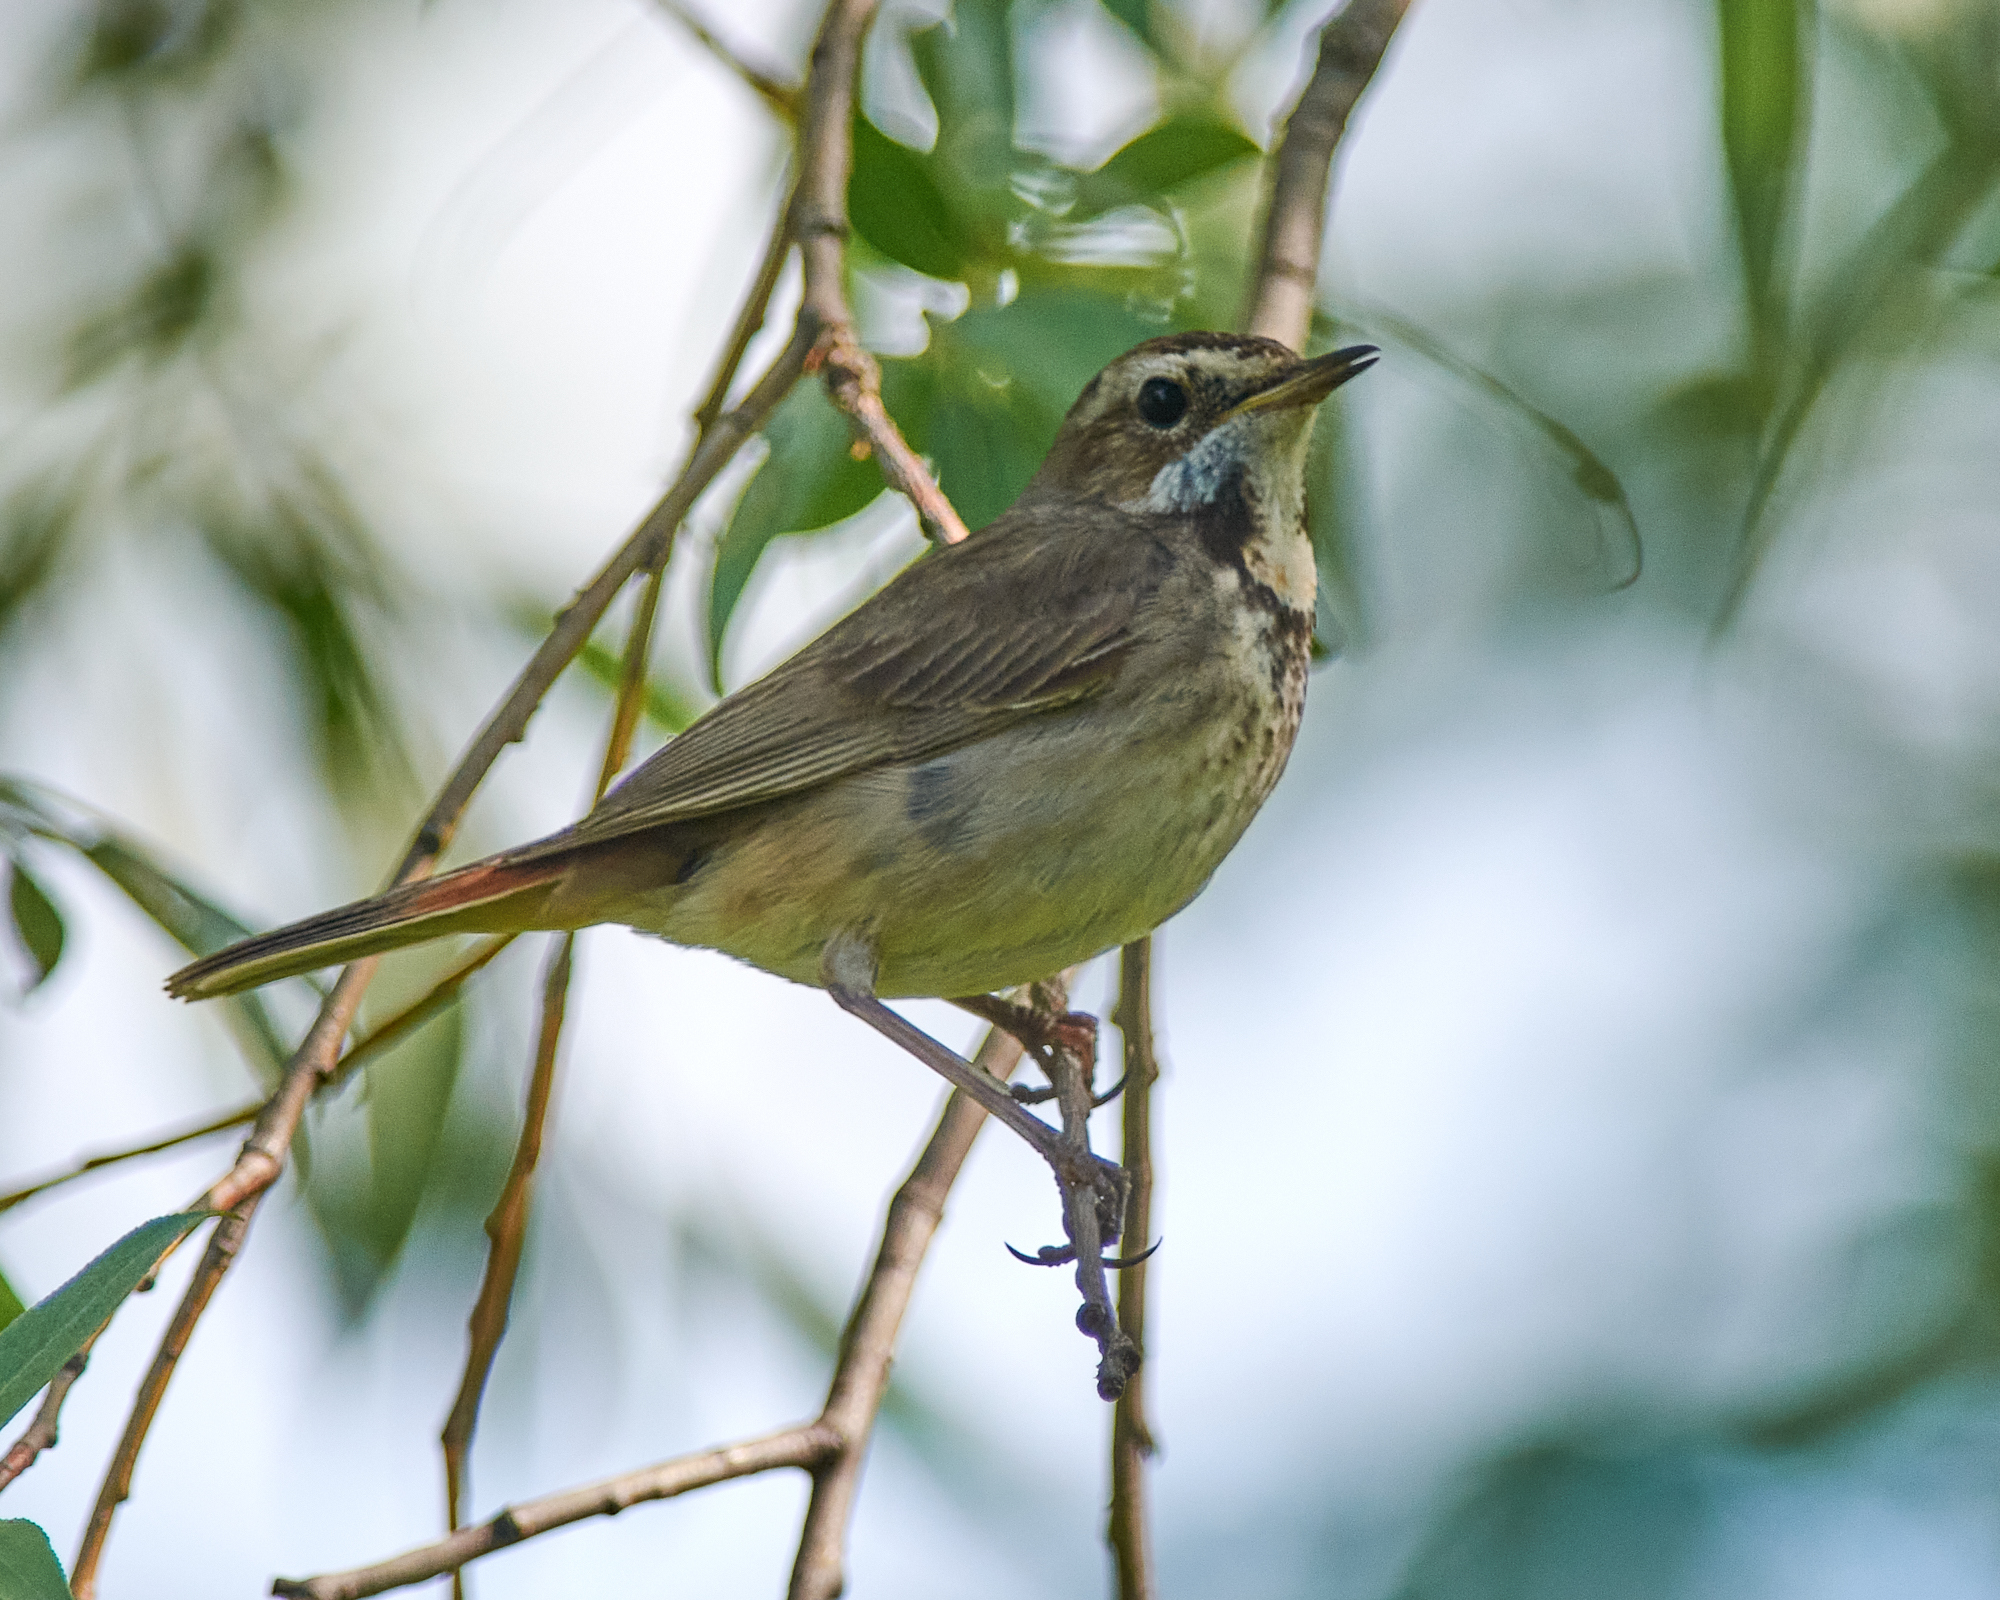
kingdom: Animalia
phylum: Chordata
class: Aves
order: Passeriformes
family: Muscicapidae
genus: Luscinia
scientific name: Luscinia svecica
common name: Bluethroat
